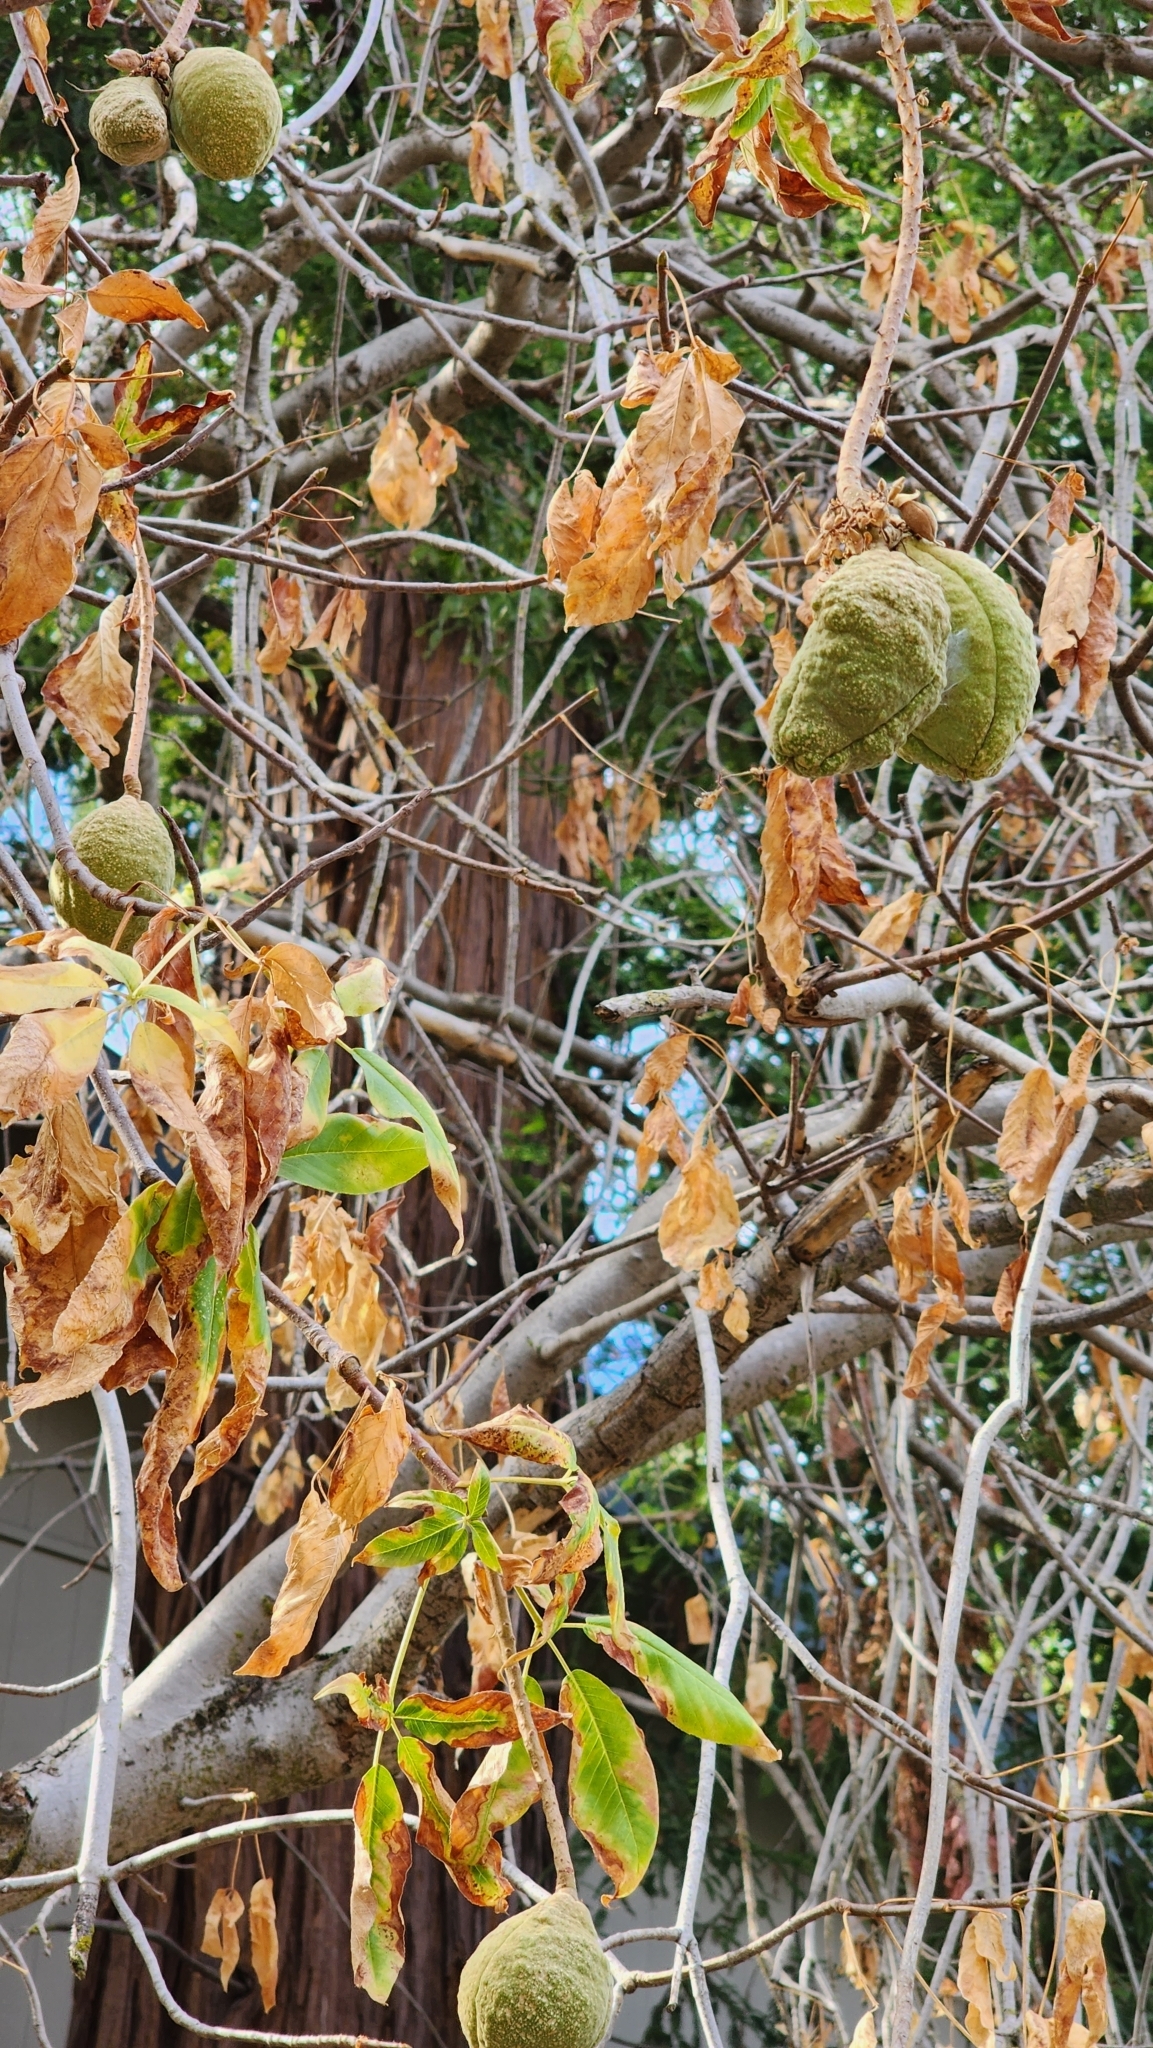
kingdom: Plantae
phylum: Tracheophyta
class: Magnoliopsida
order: Sapindales
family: Sapindaceae
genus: Aesculus
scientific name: Aesculus californica
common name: California buckeye
